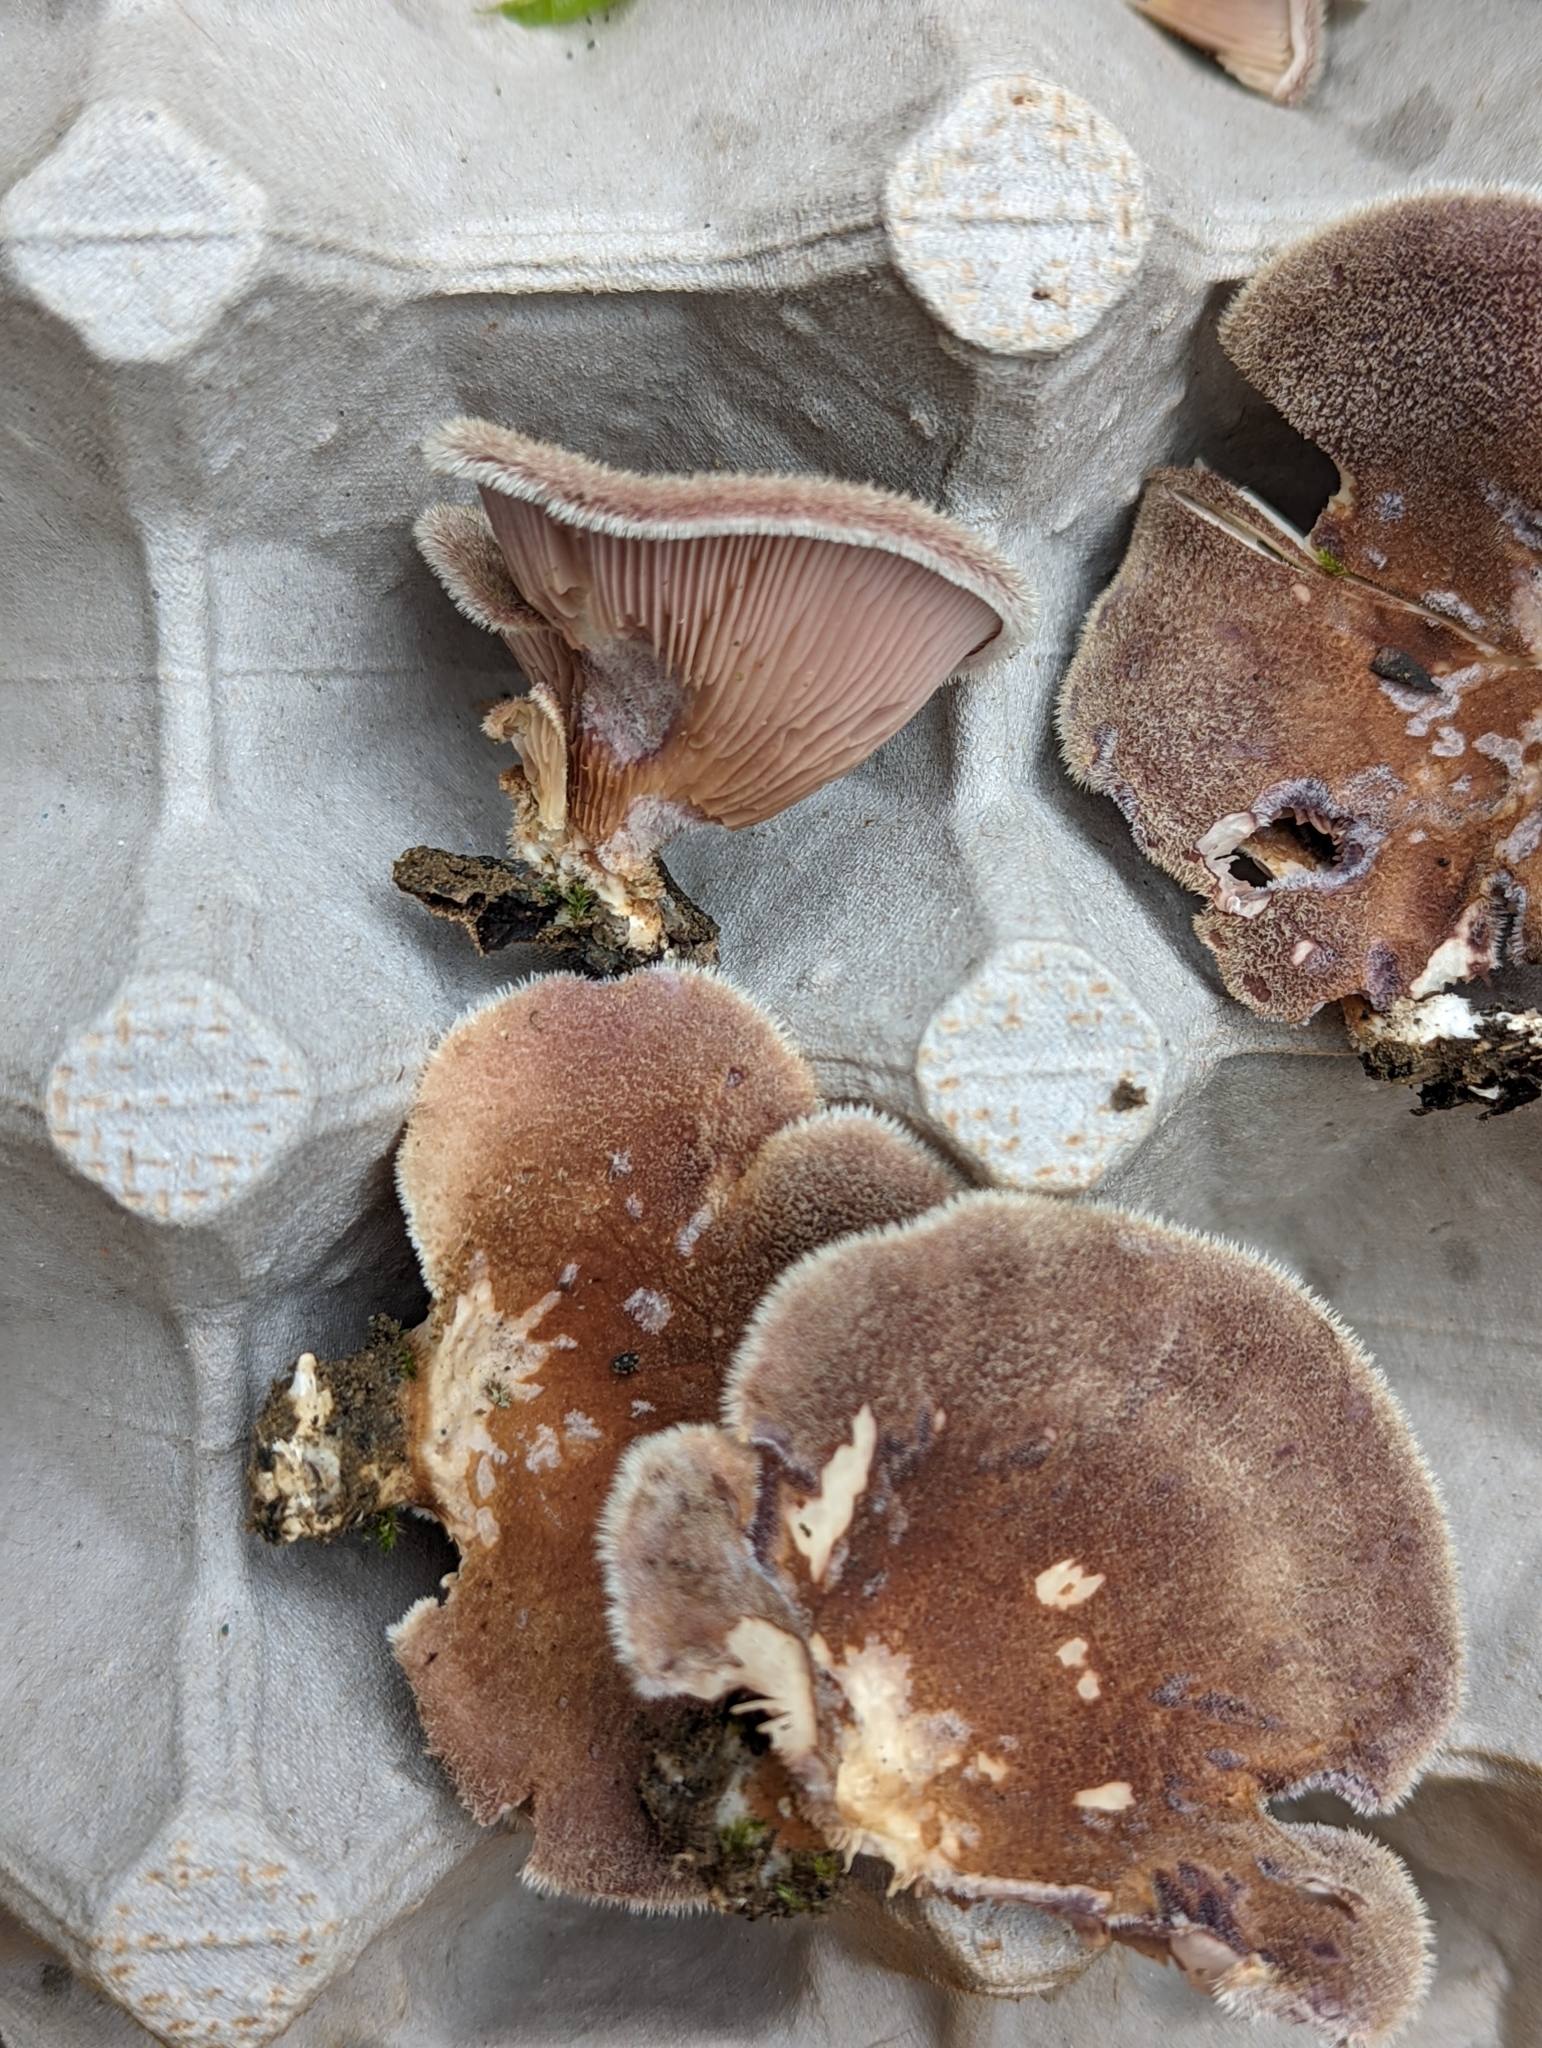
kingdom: Fungi
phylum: Basidiomycota
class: Agaricomycetes
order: Polyporales
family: Panaceae
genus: Panus
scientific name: Panus neostrigosus
